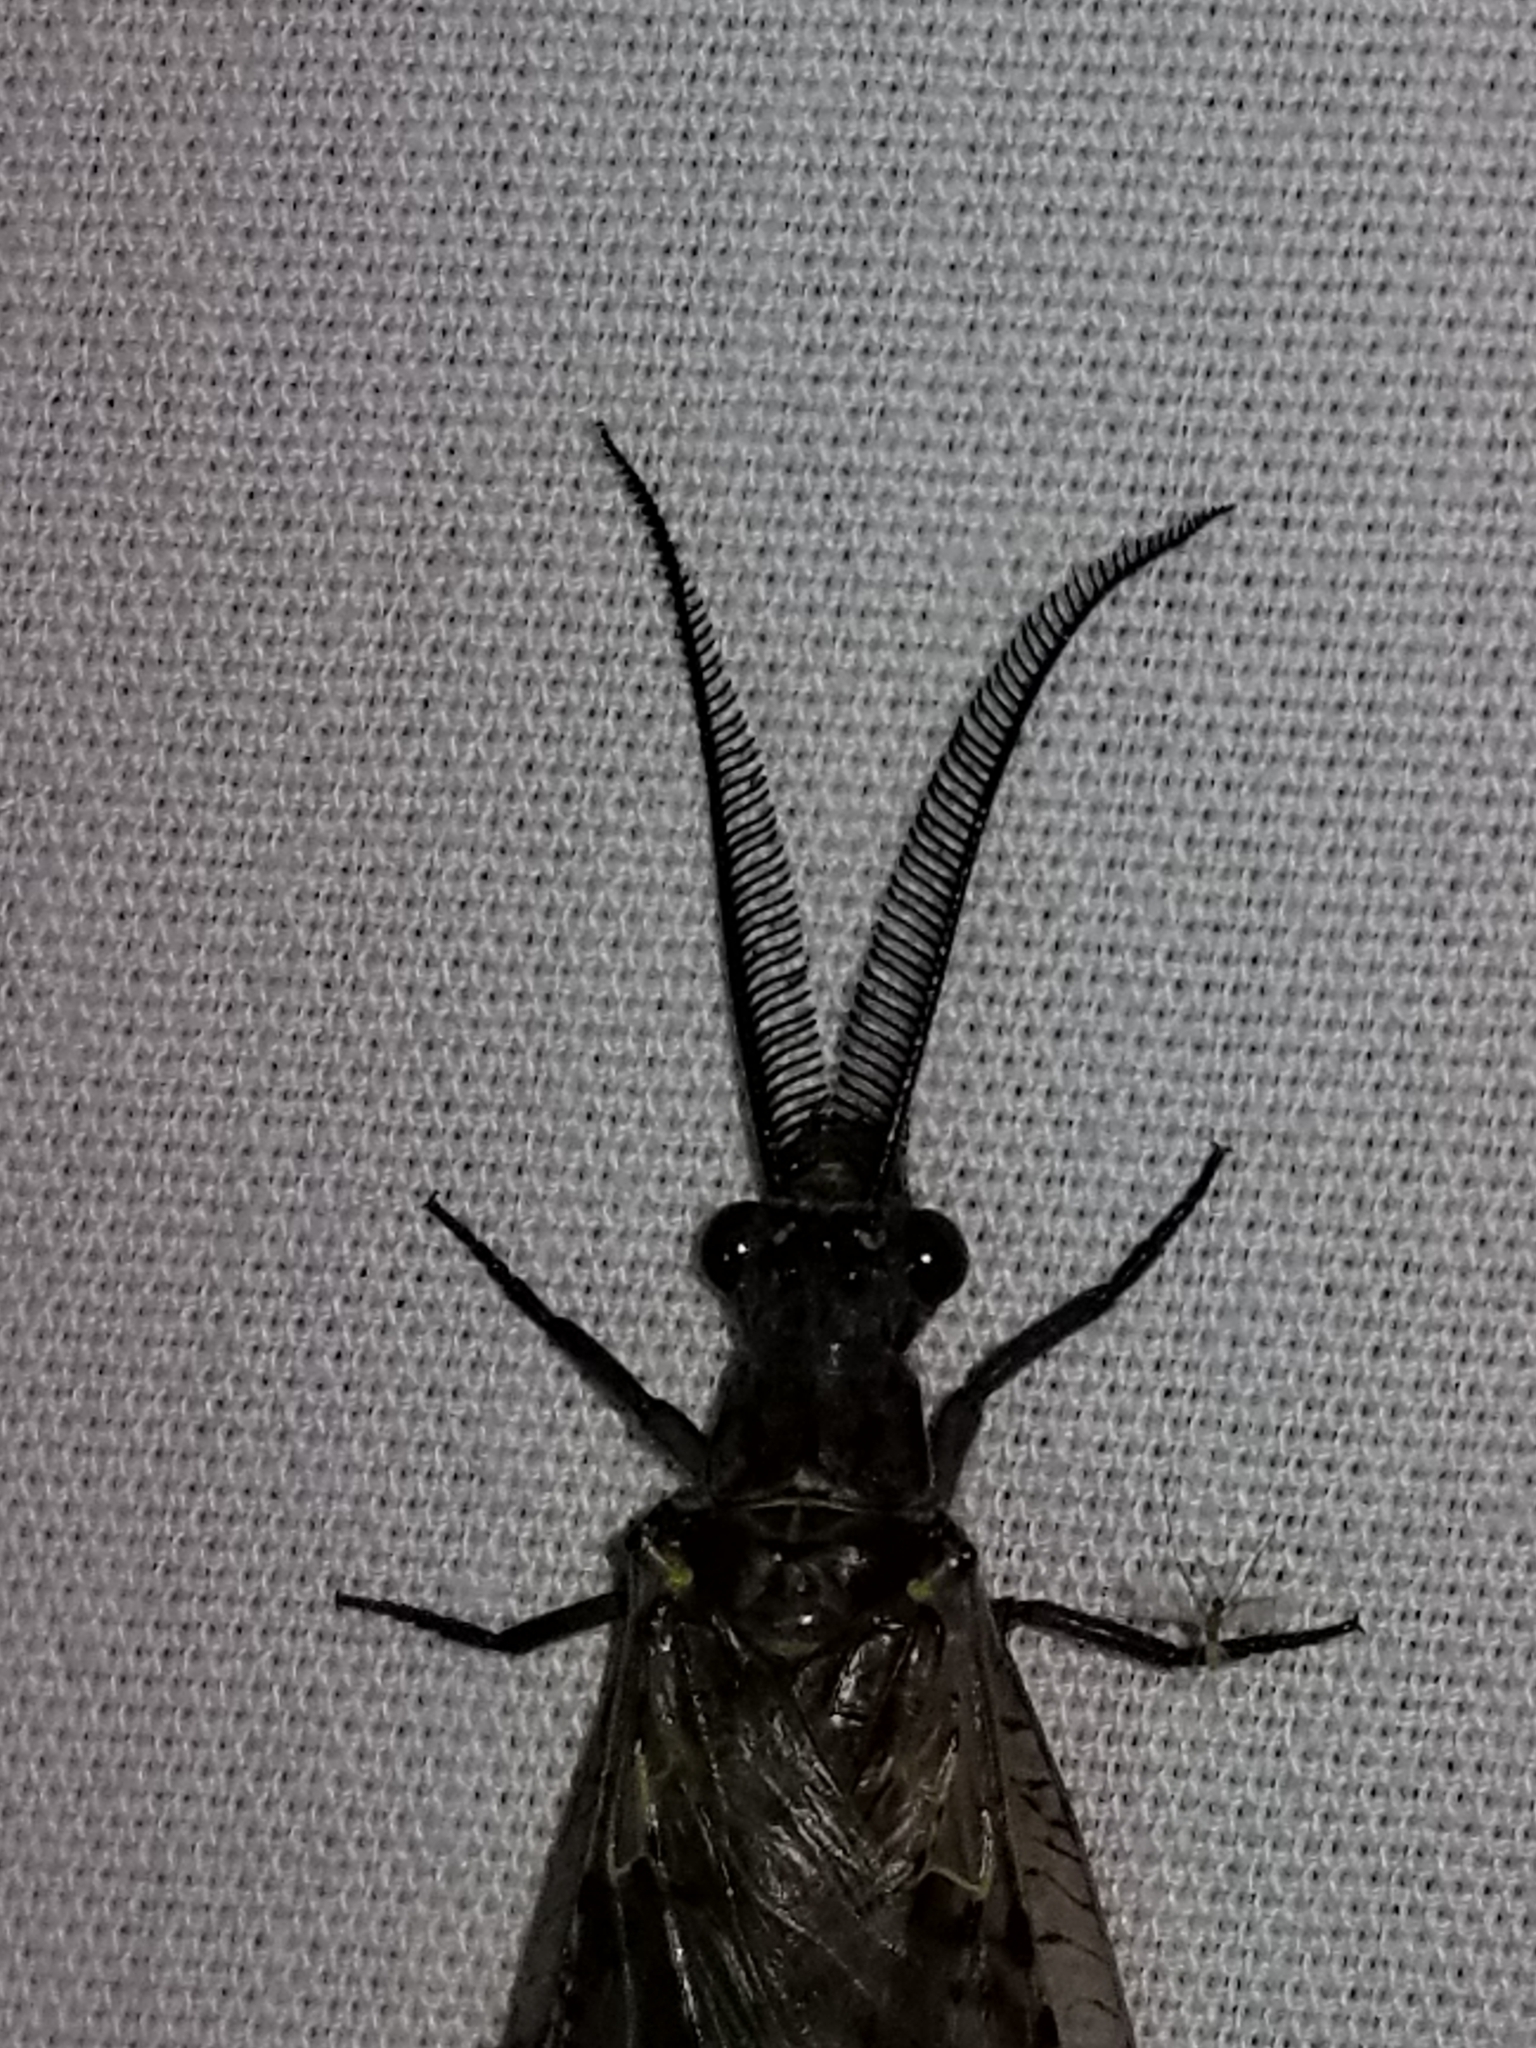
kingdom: Animalia
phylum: Arthropoda
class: Insecta
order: Megaloptera
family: Corydalidae
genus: Chauliodes
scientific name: Chauliodes rastricornis
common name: Spring fishfly
